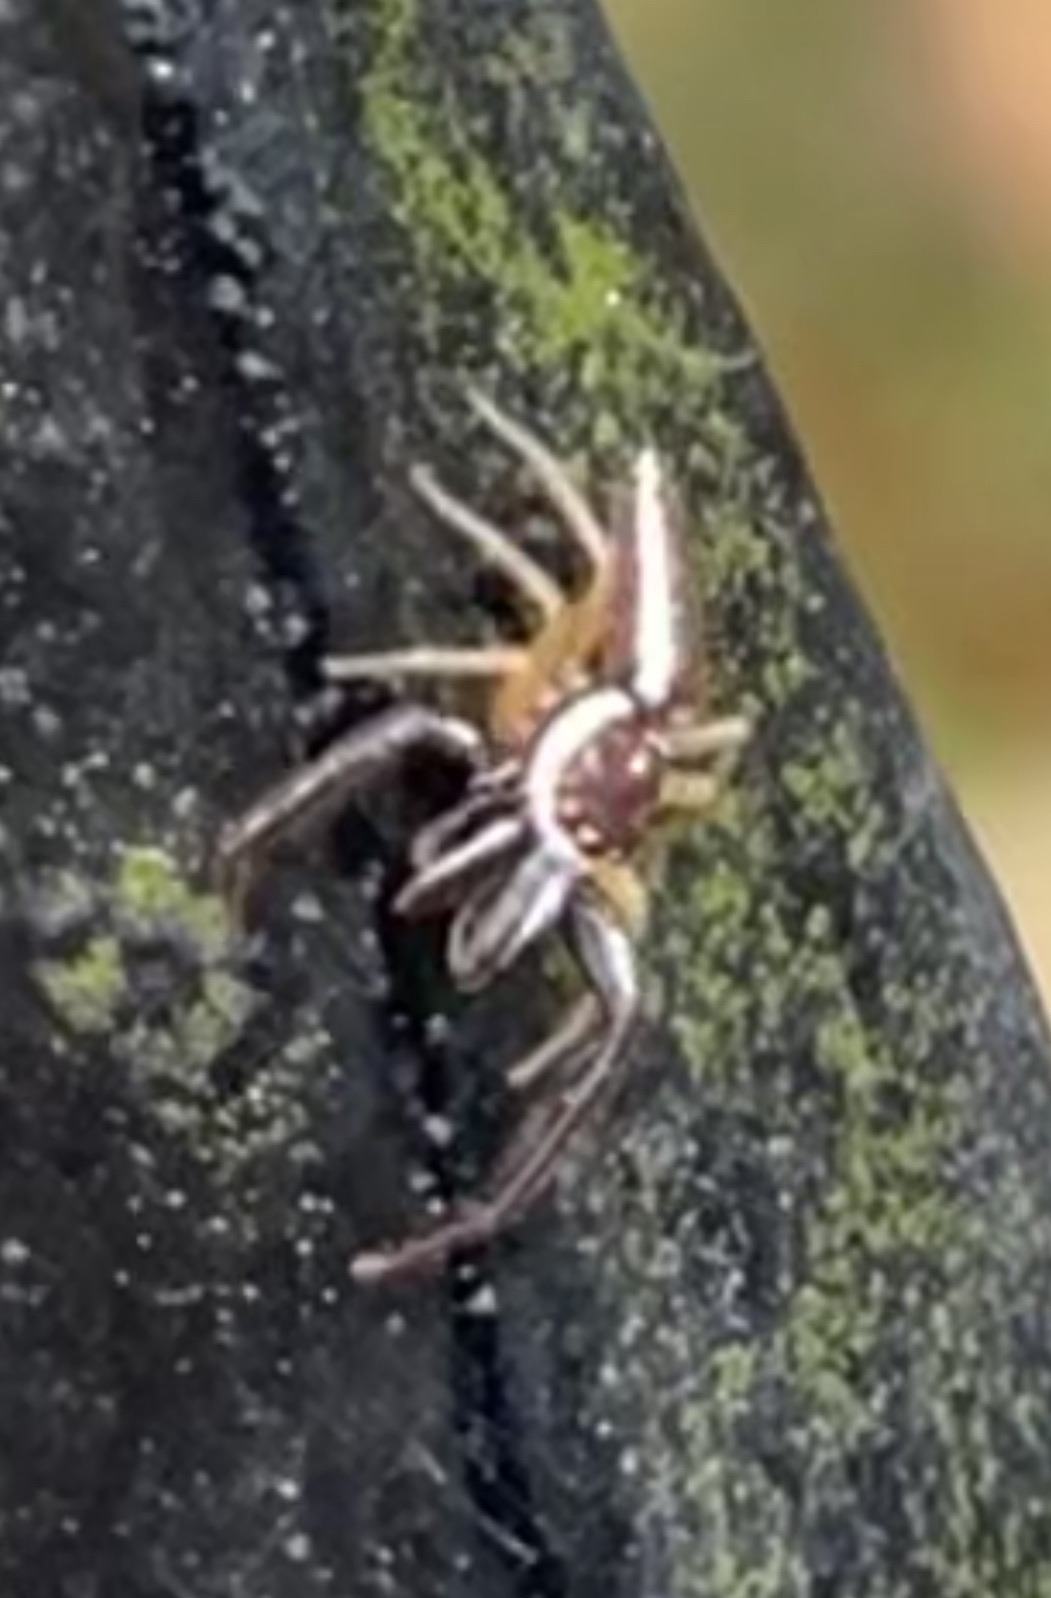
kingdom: Animalia
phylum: Arthropoda
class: Arachnida
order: Araneae
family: Salticidae
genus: Hentzia
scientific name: Hentzia palmarum
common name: Common hentz jumping spider
